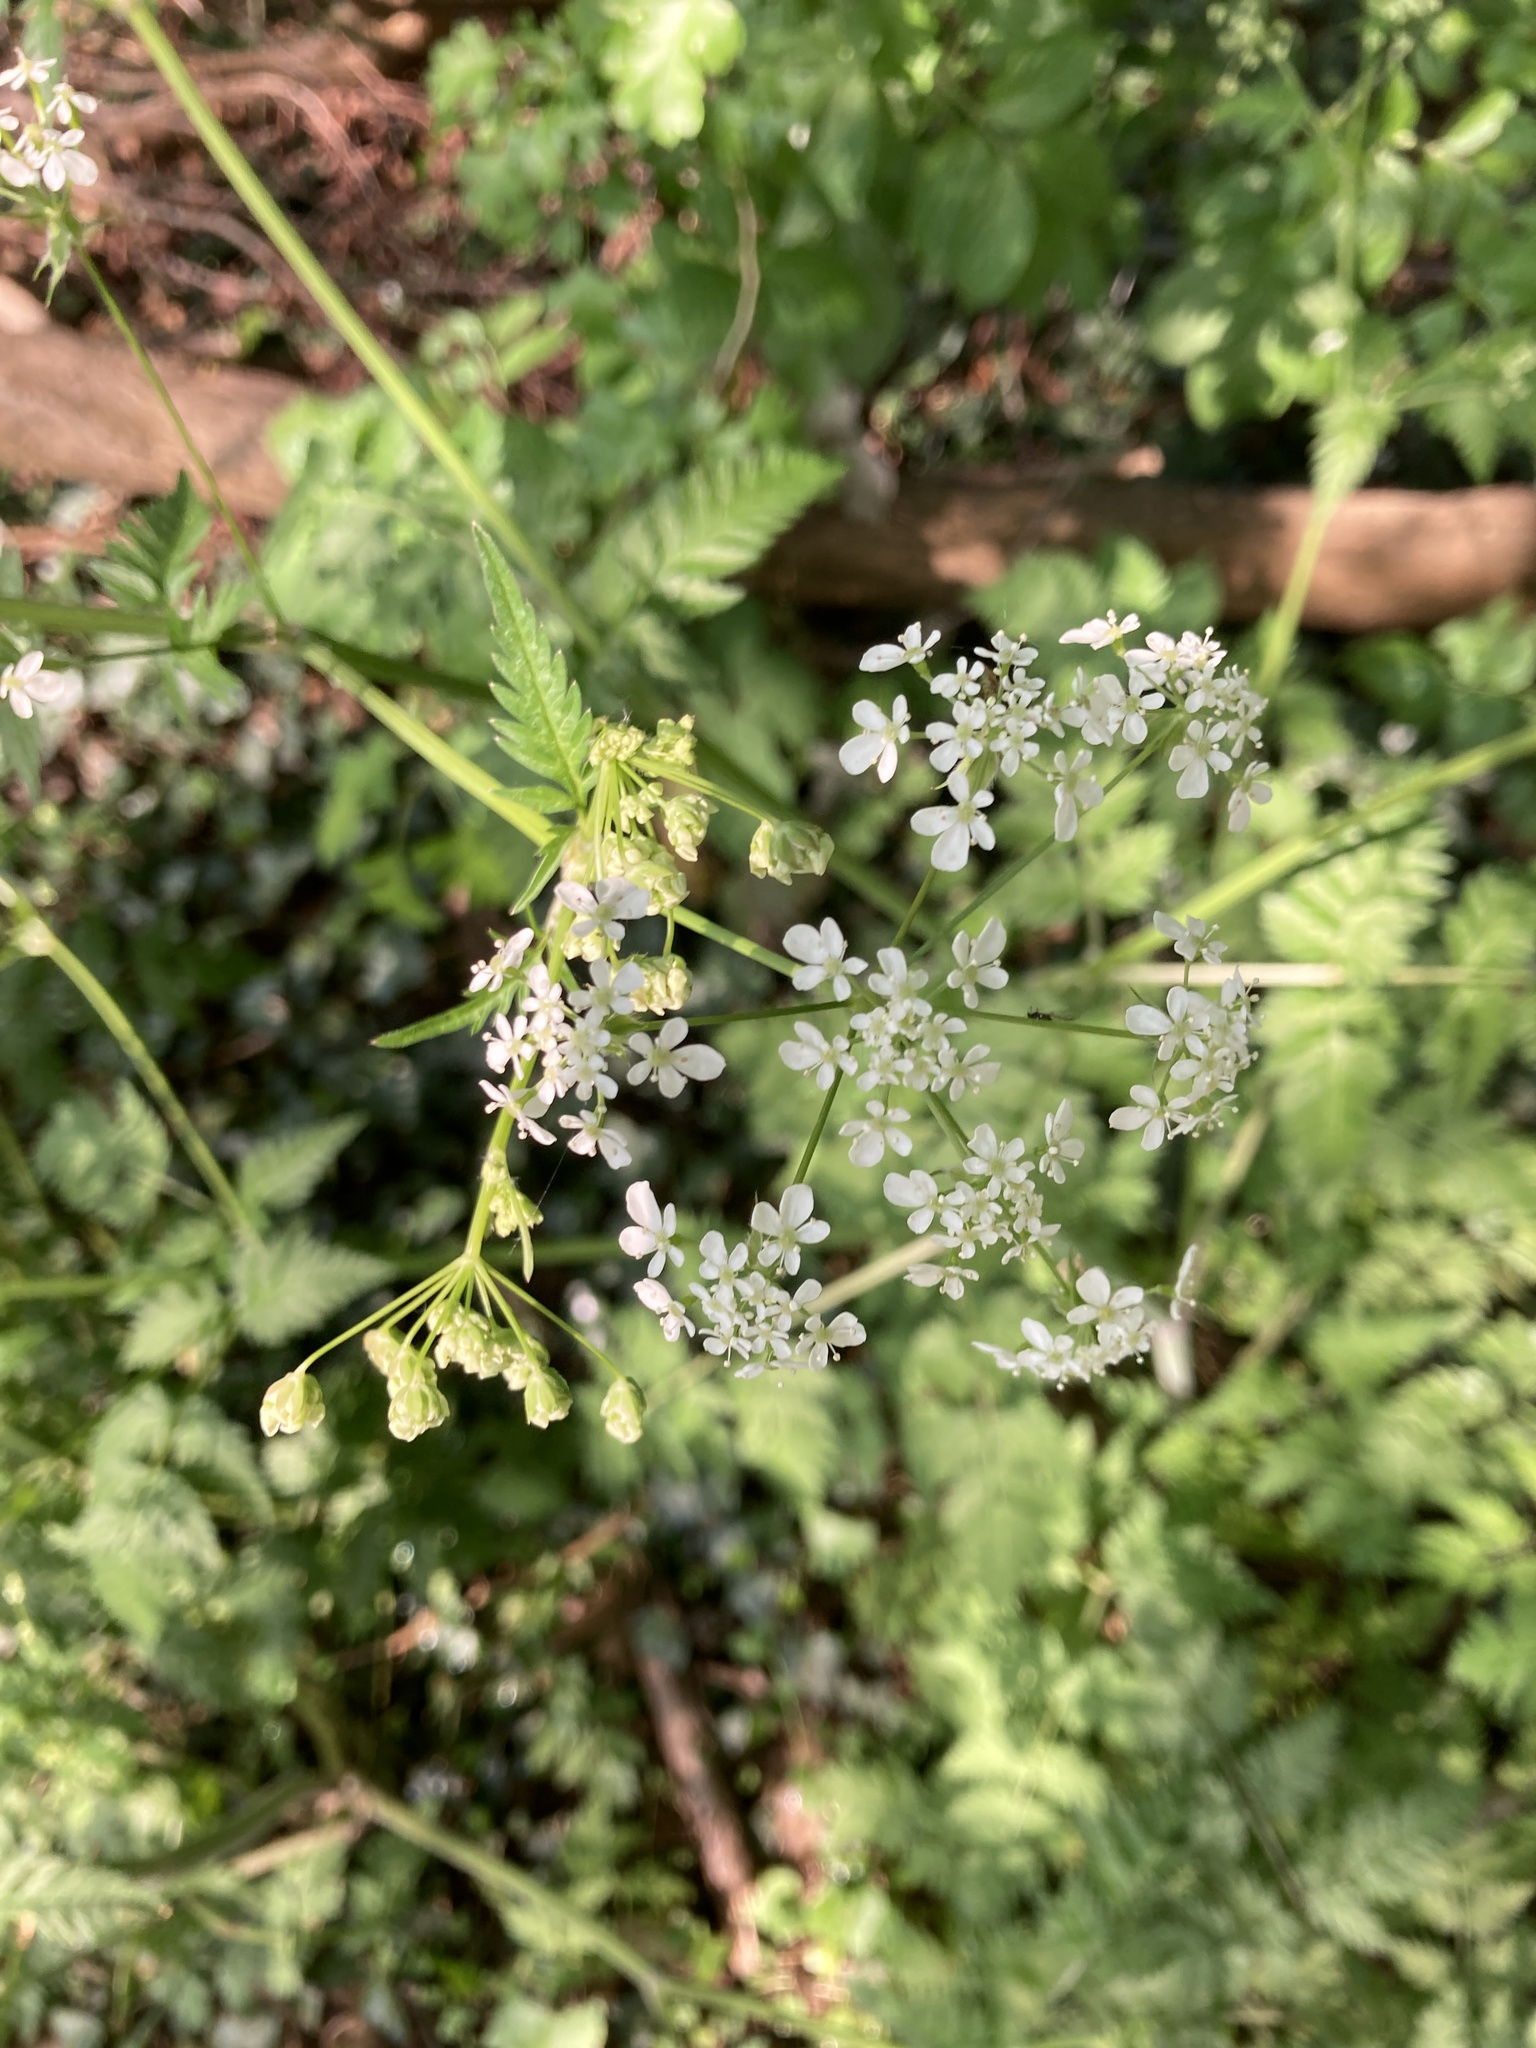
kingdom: Plantae
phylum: Tracheophyta
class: Magnoliopsida
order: Apiales
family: Apiaceae
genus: Anthriscus
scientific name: Anthriscus sylvestris
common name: Cow parsley
